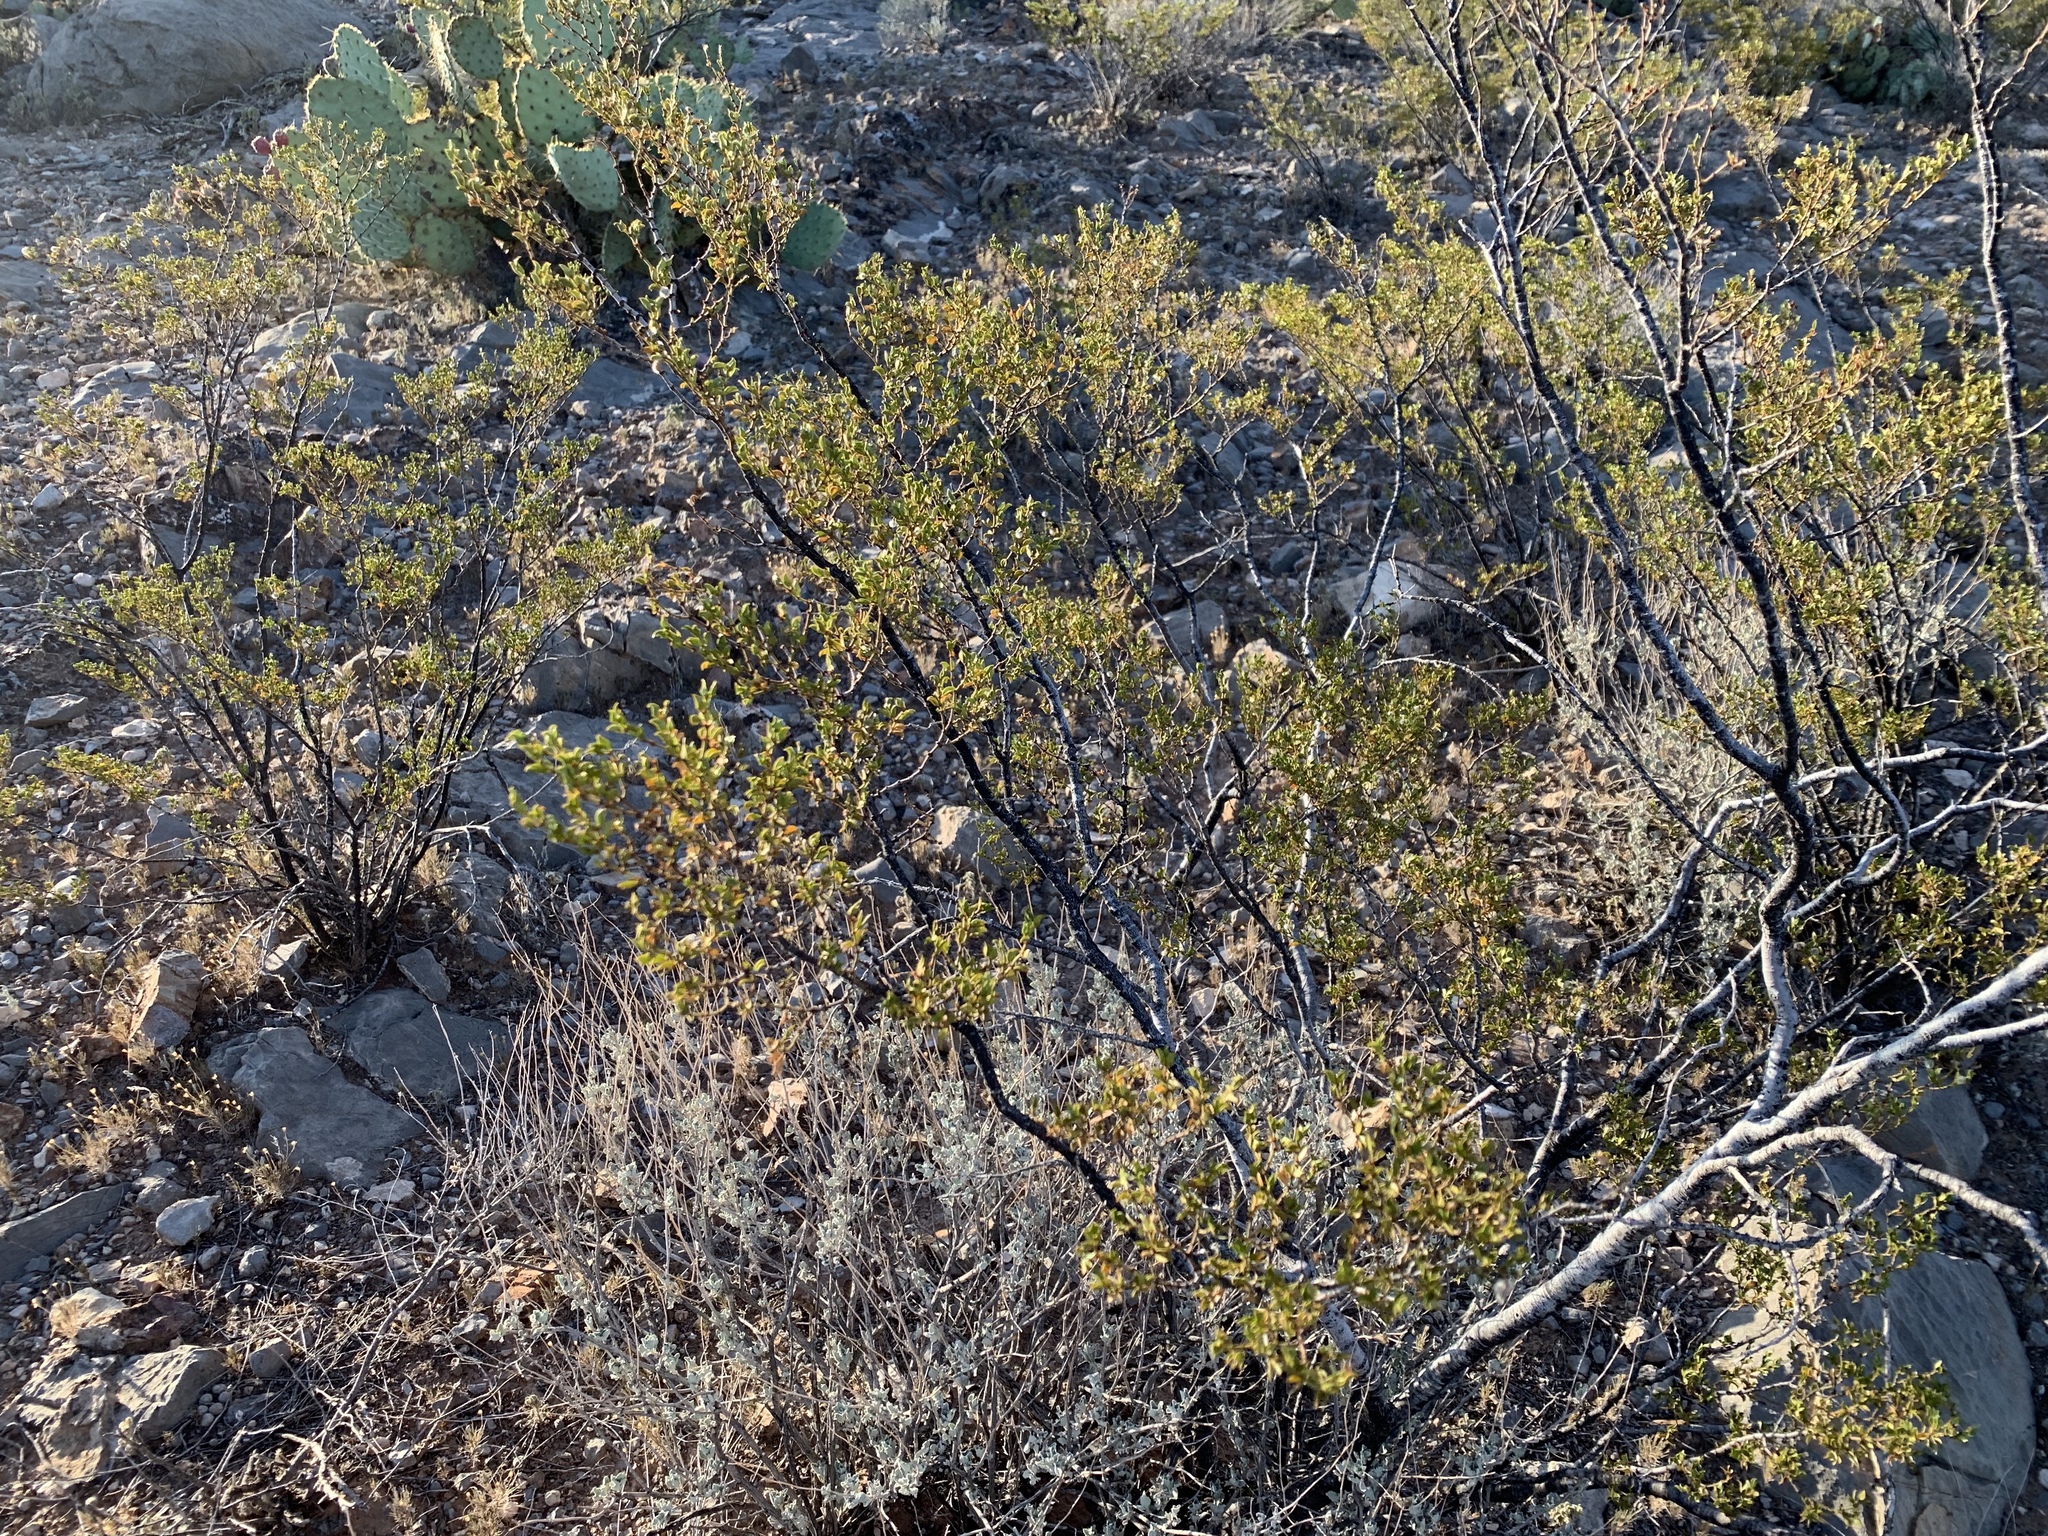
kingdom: Plantae
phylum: Tracheophyta
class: Magnoliopsida
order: Zygophyllales
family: Zygophyllaceae
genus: Larrea
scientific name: Larrea tridentata
